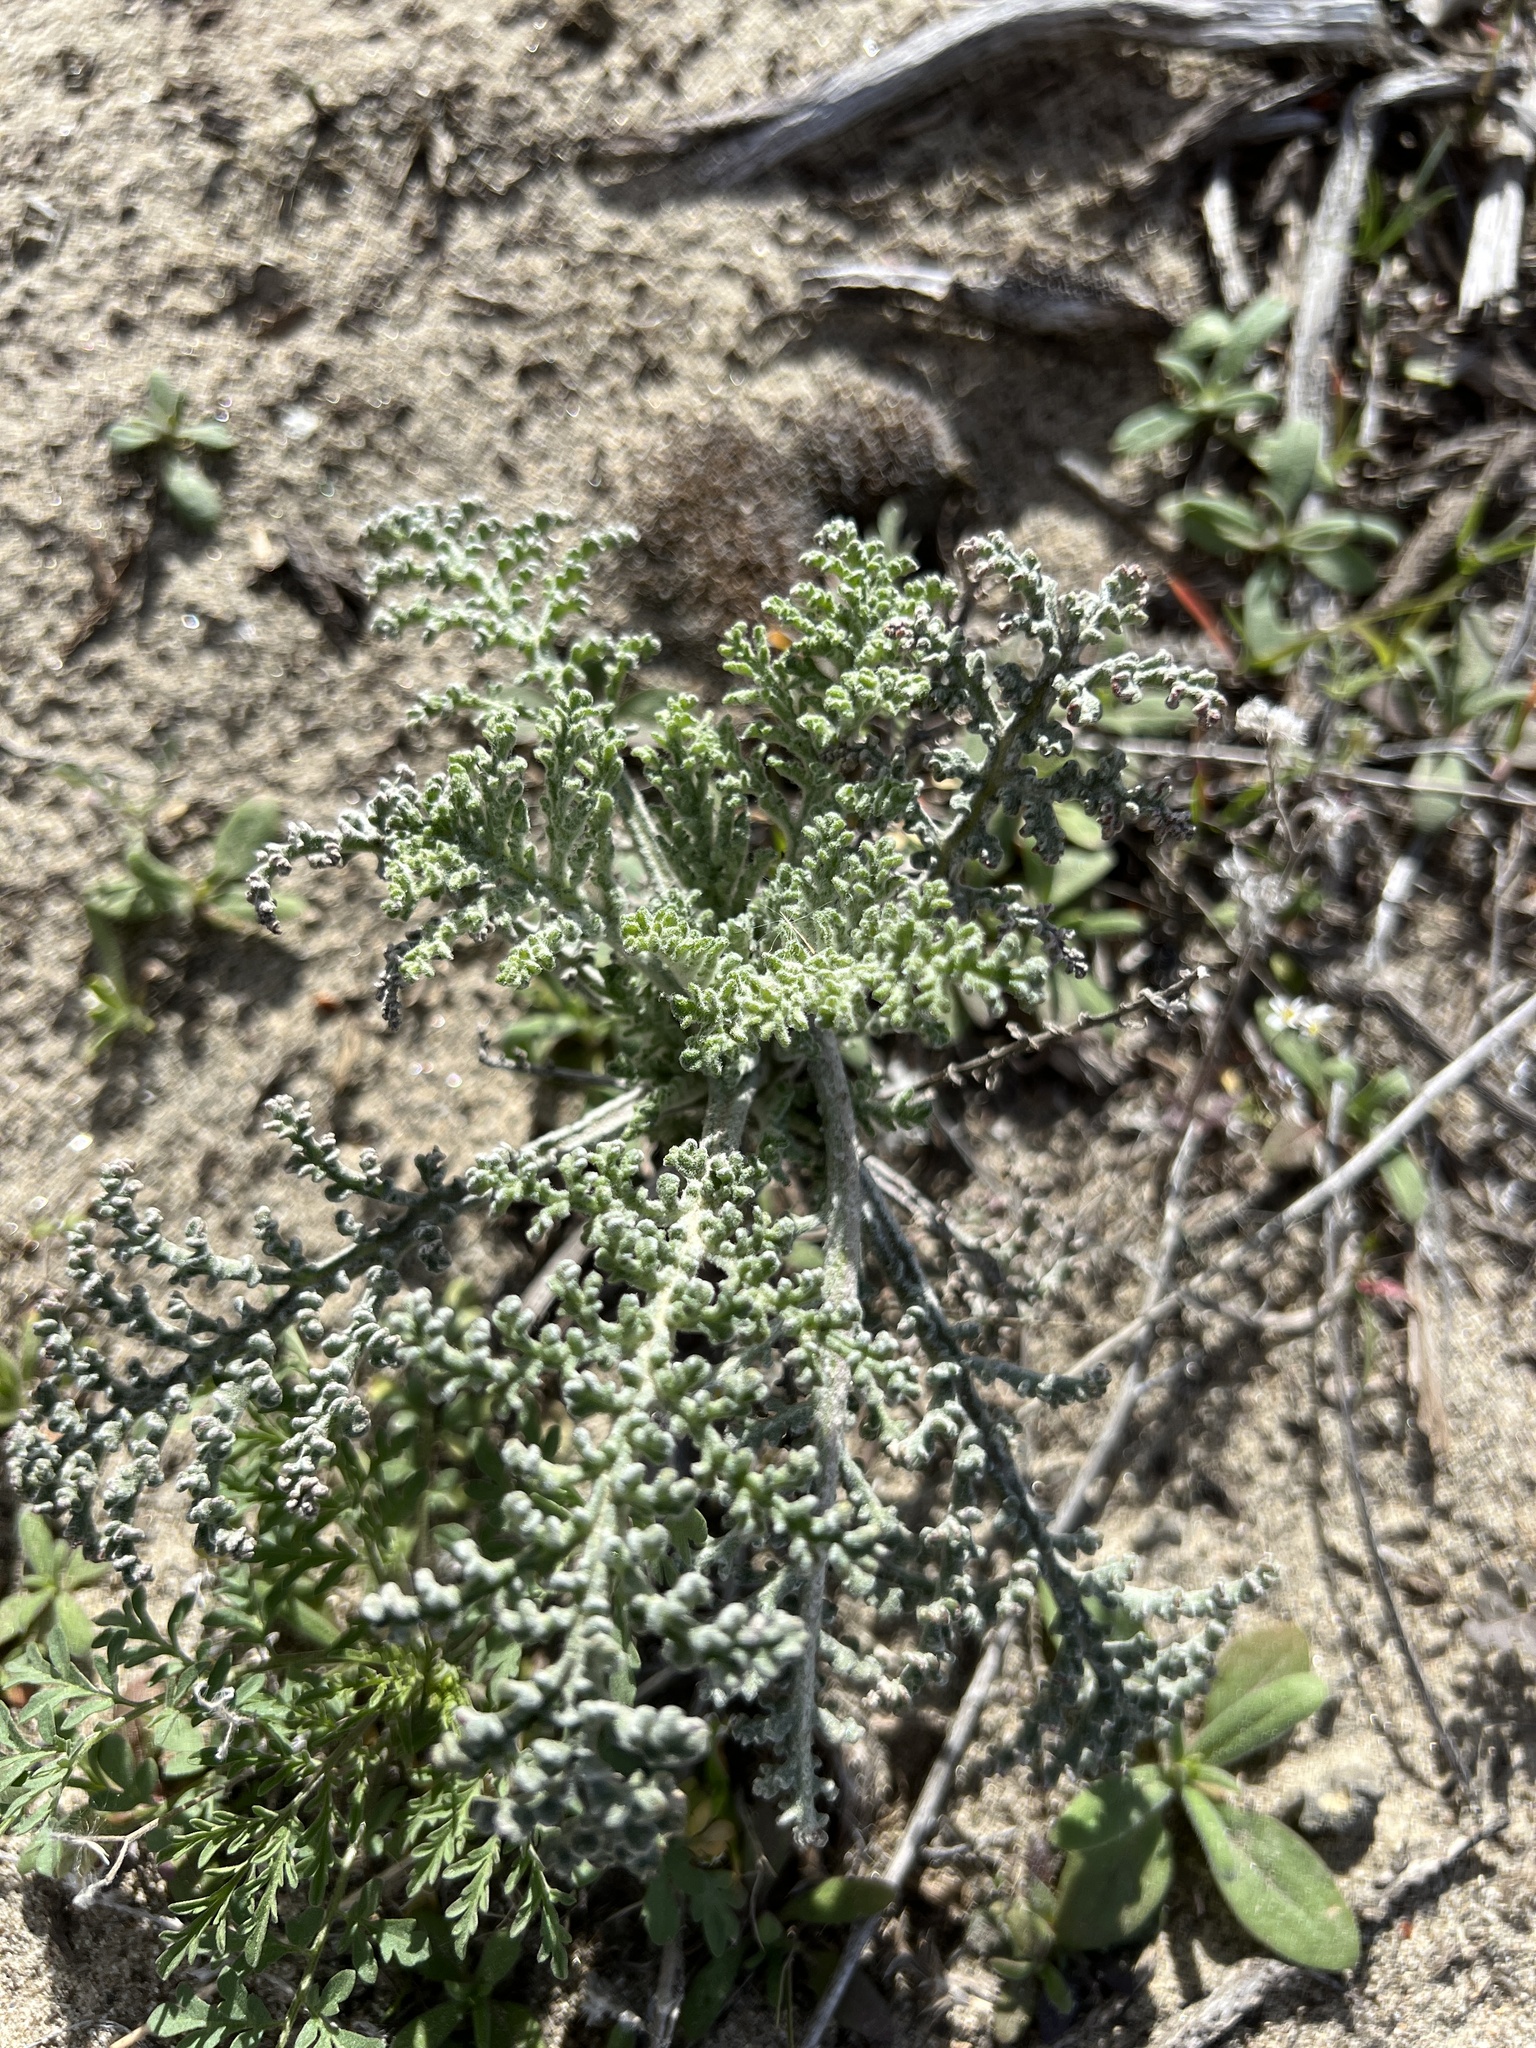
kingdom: Plantae
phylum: Tracheophyta
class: Magnoliopsida
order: Asterales
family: Asteraceae
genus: Chaenactis
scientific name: Chaenactis douglasii
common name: Hoary pincushion
